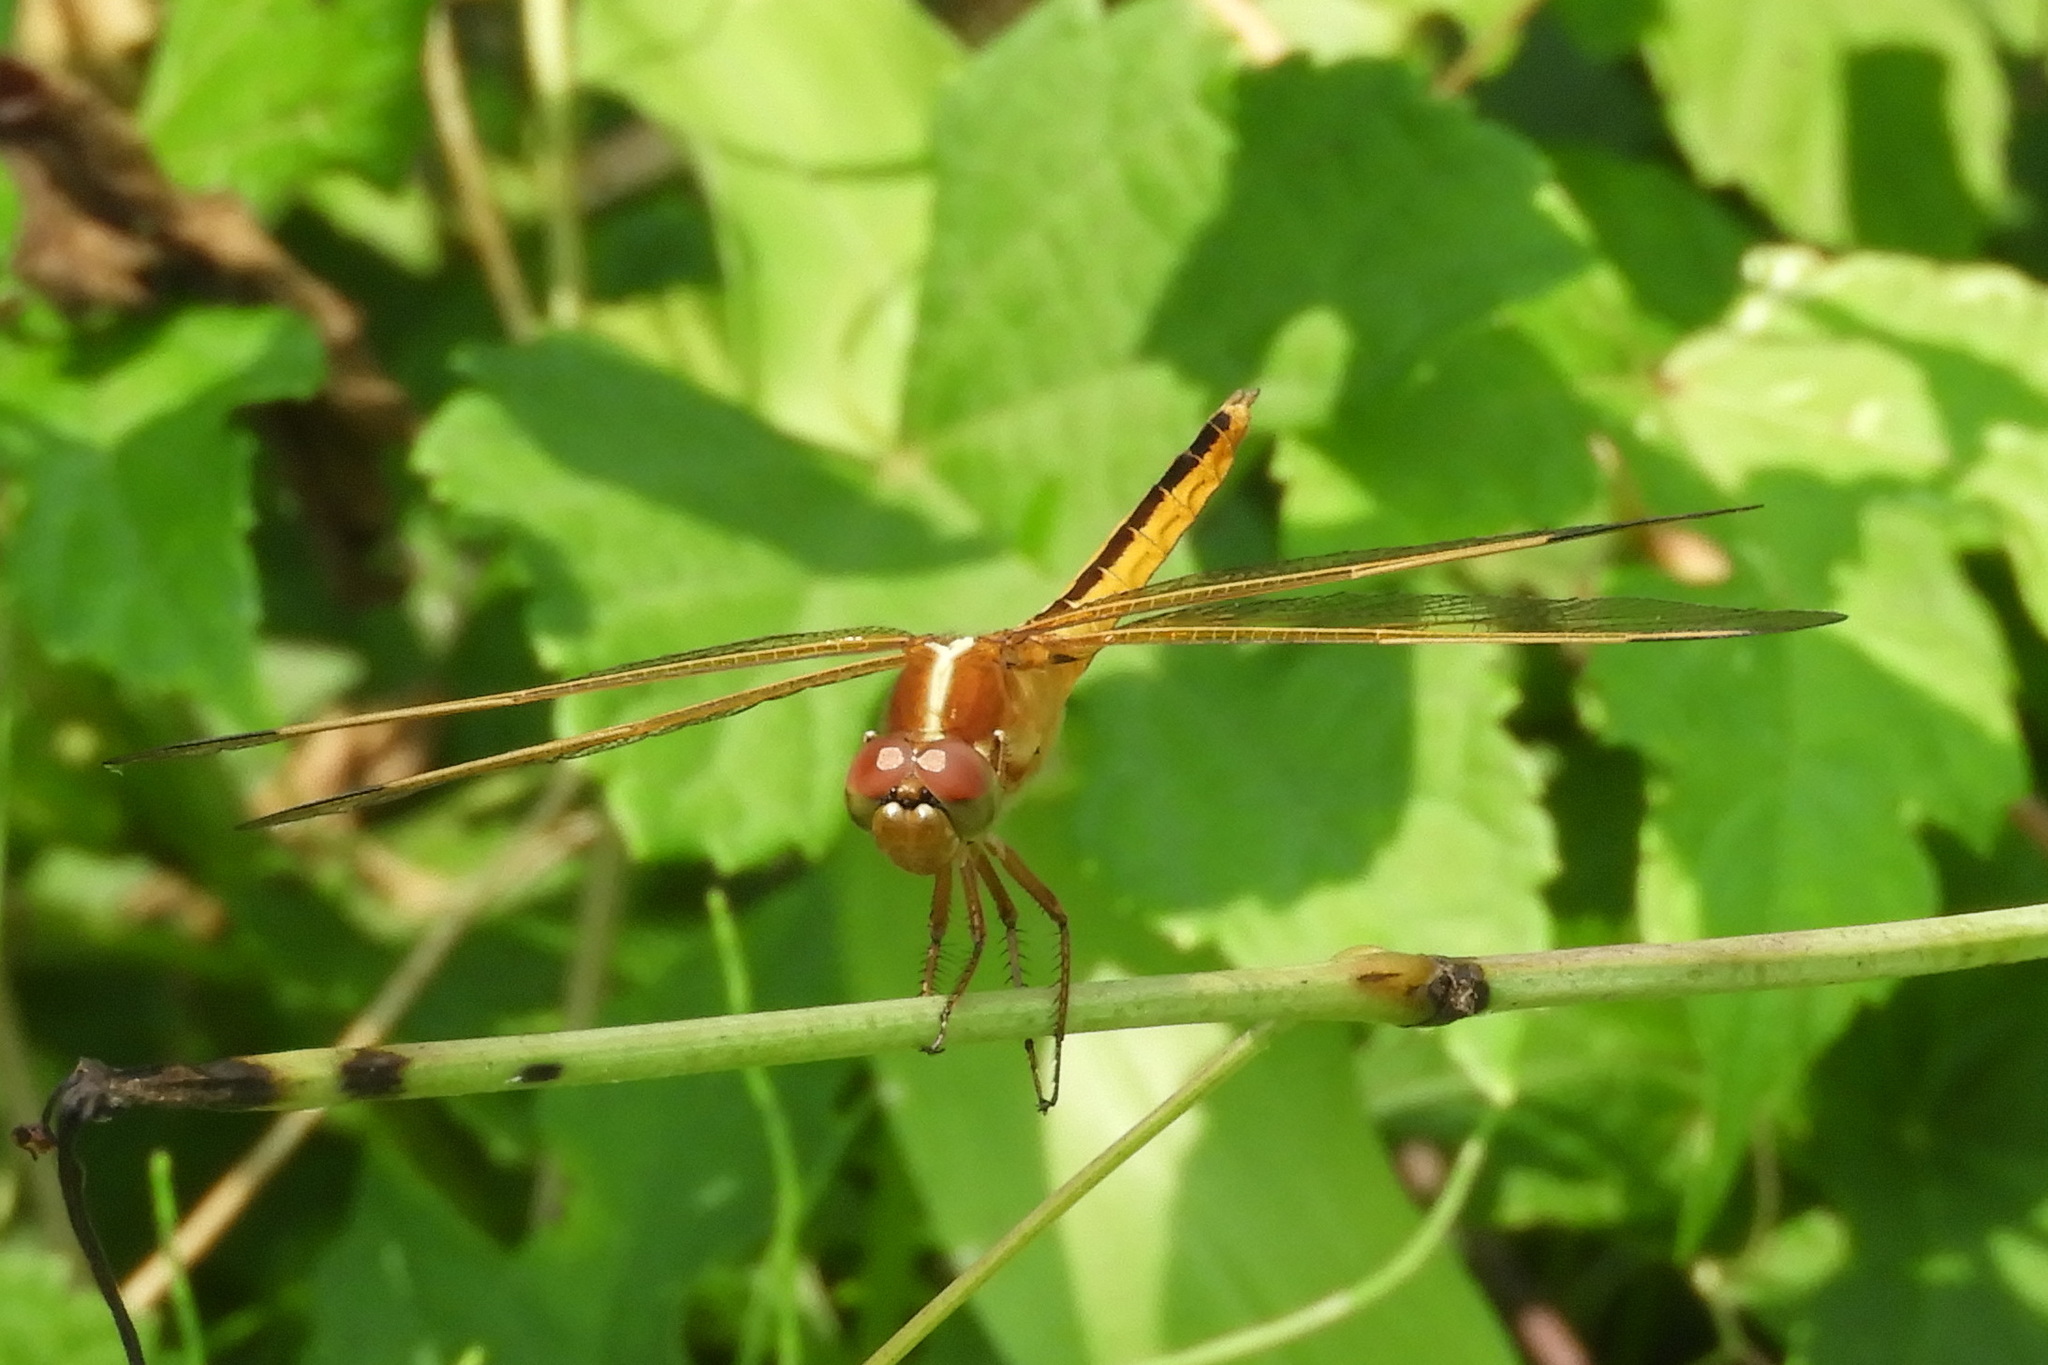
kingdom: Animalia
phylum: Arthropoda
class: Insecta
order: Odonata
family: Libellulidae
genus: Libellula
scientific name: Libellula needhami
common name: Needham's skimmer
